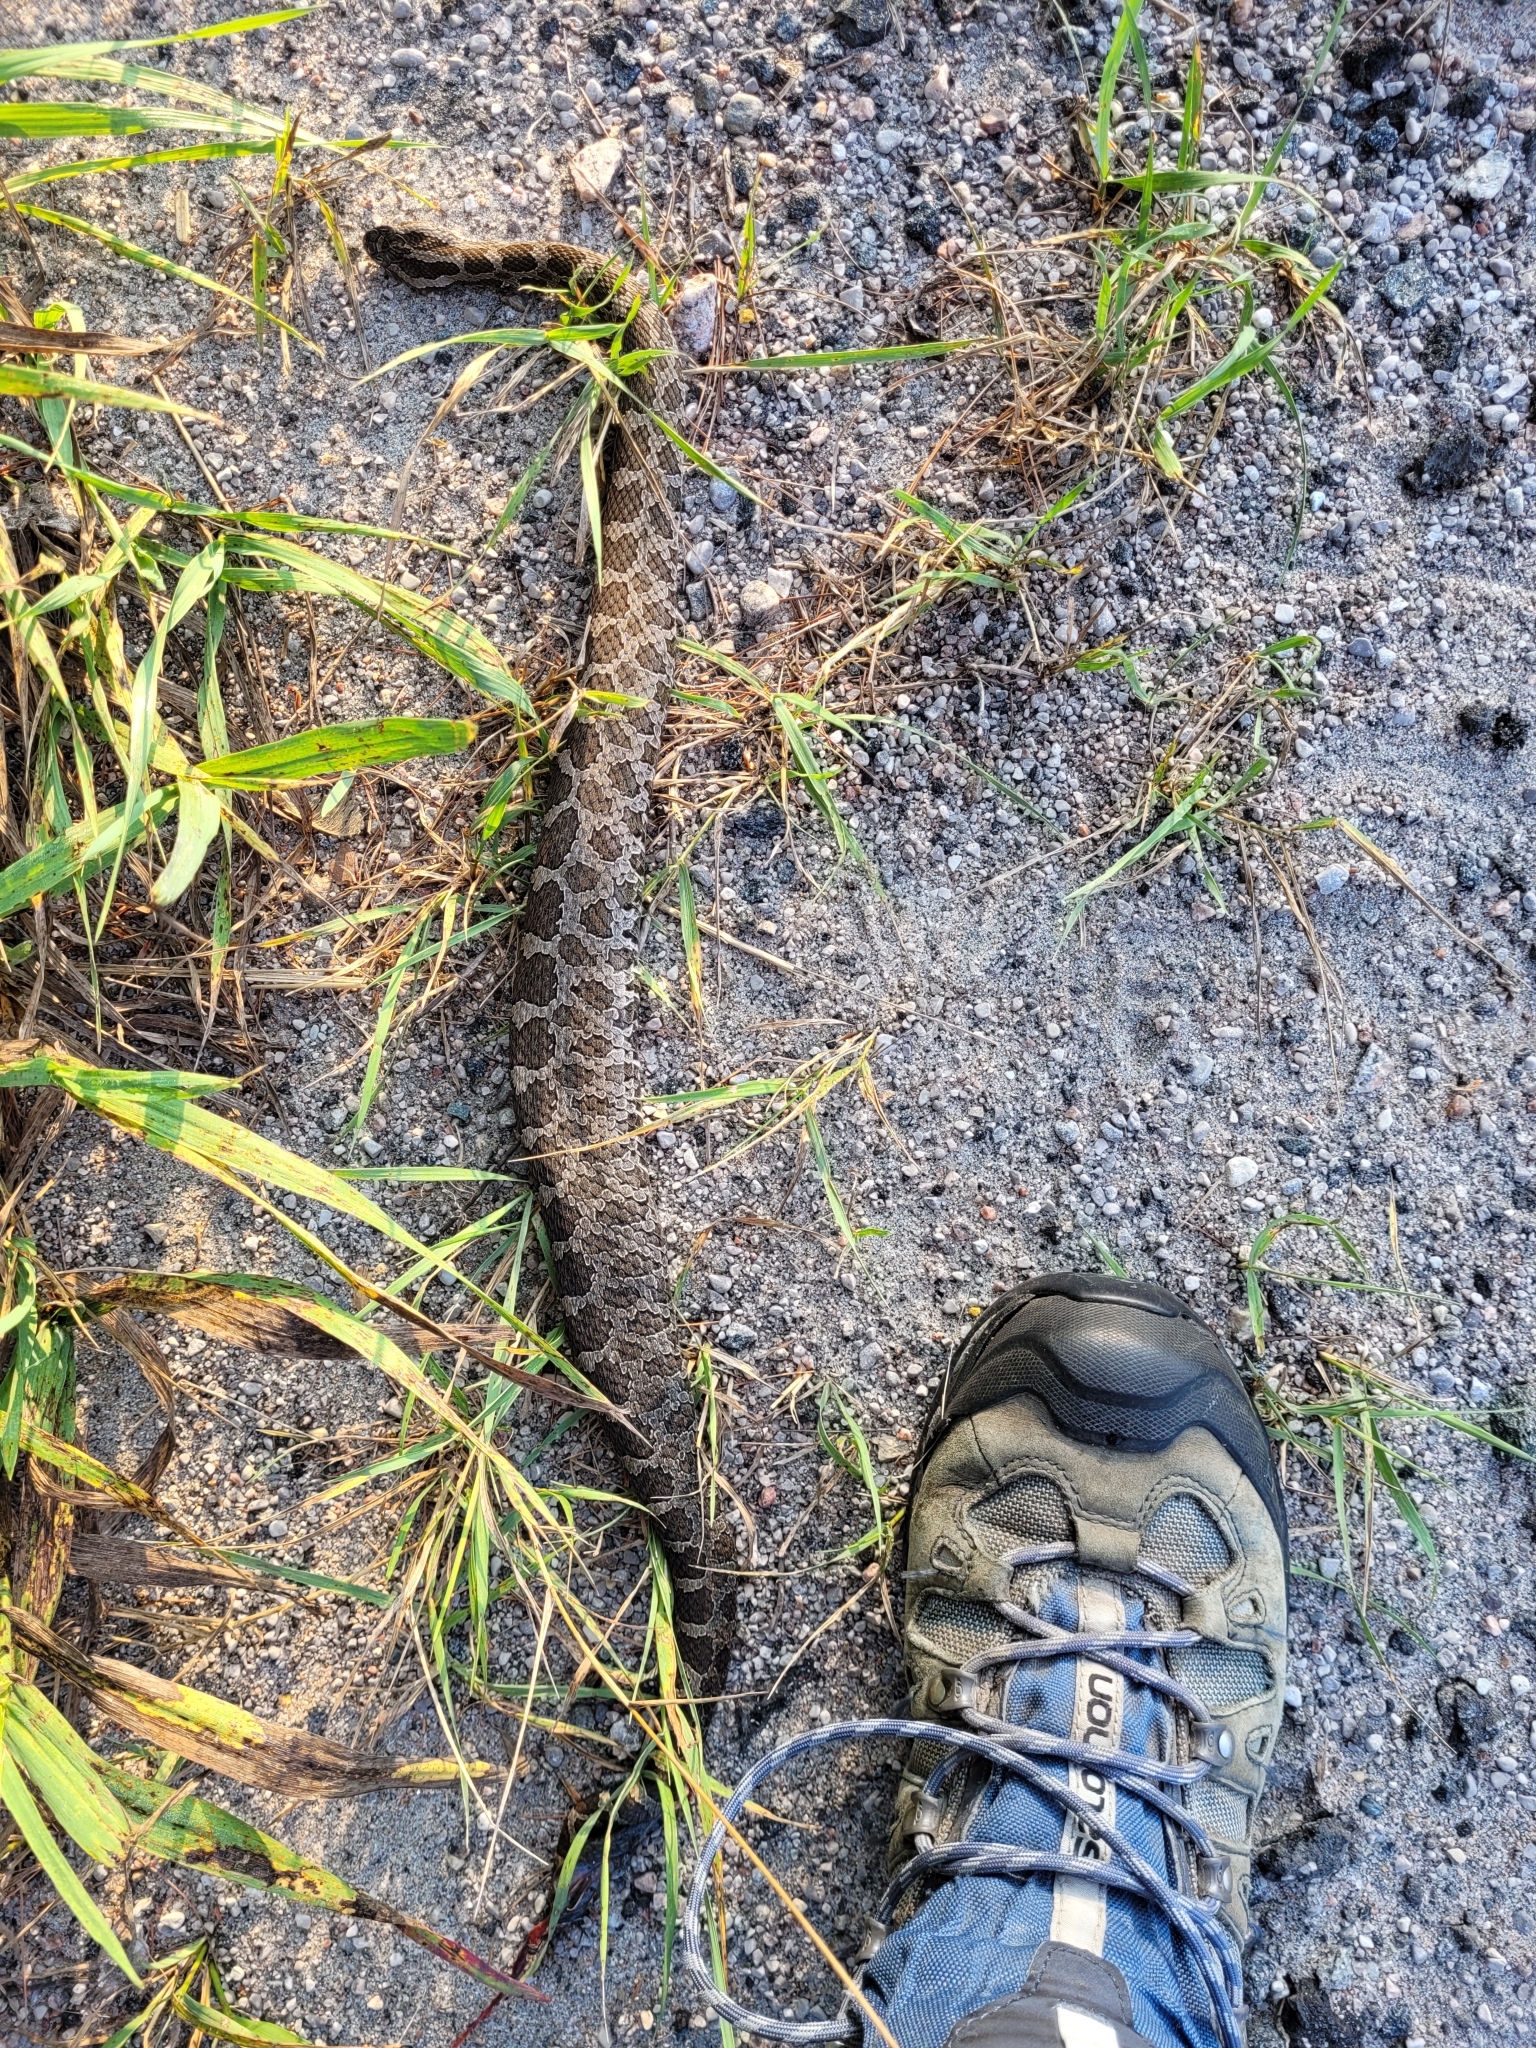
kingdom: Animalia
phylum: Chordata
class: Squamata
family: Viperidae
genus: Sistrurus
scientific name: Sistrurus catenatus
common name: Massasauga
